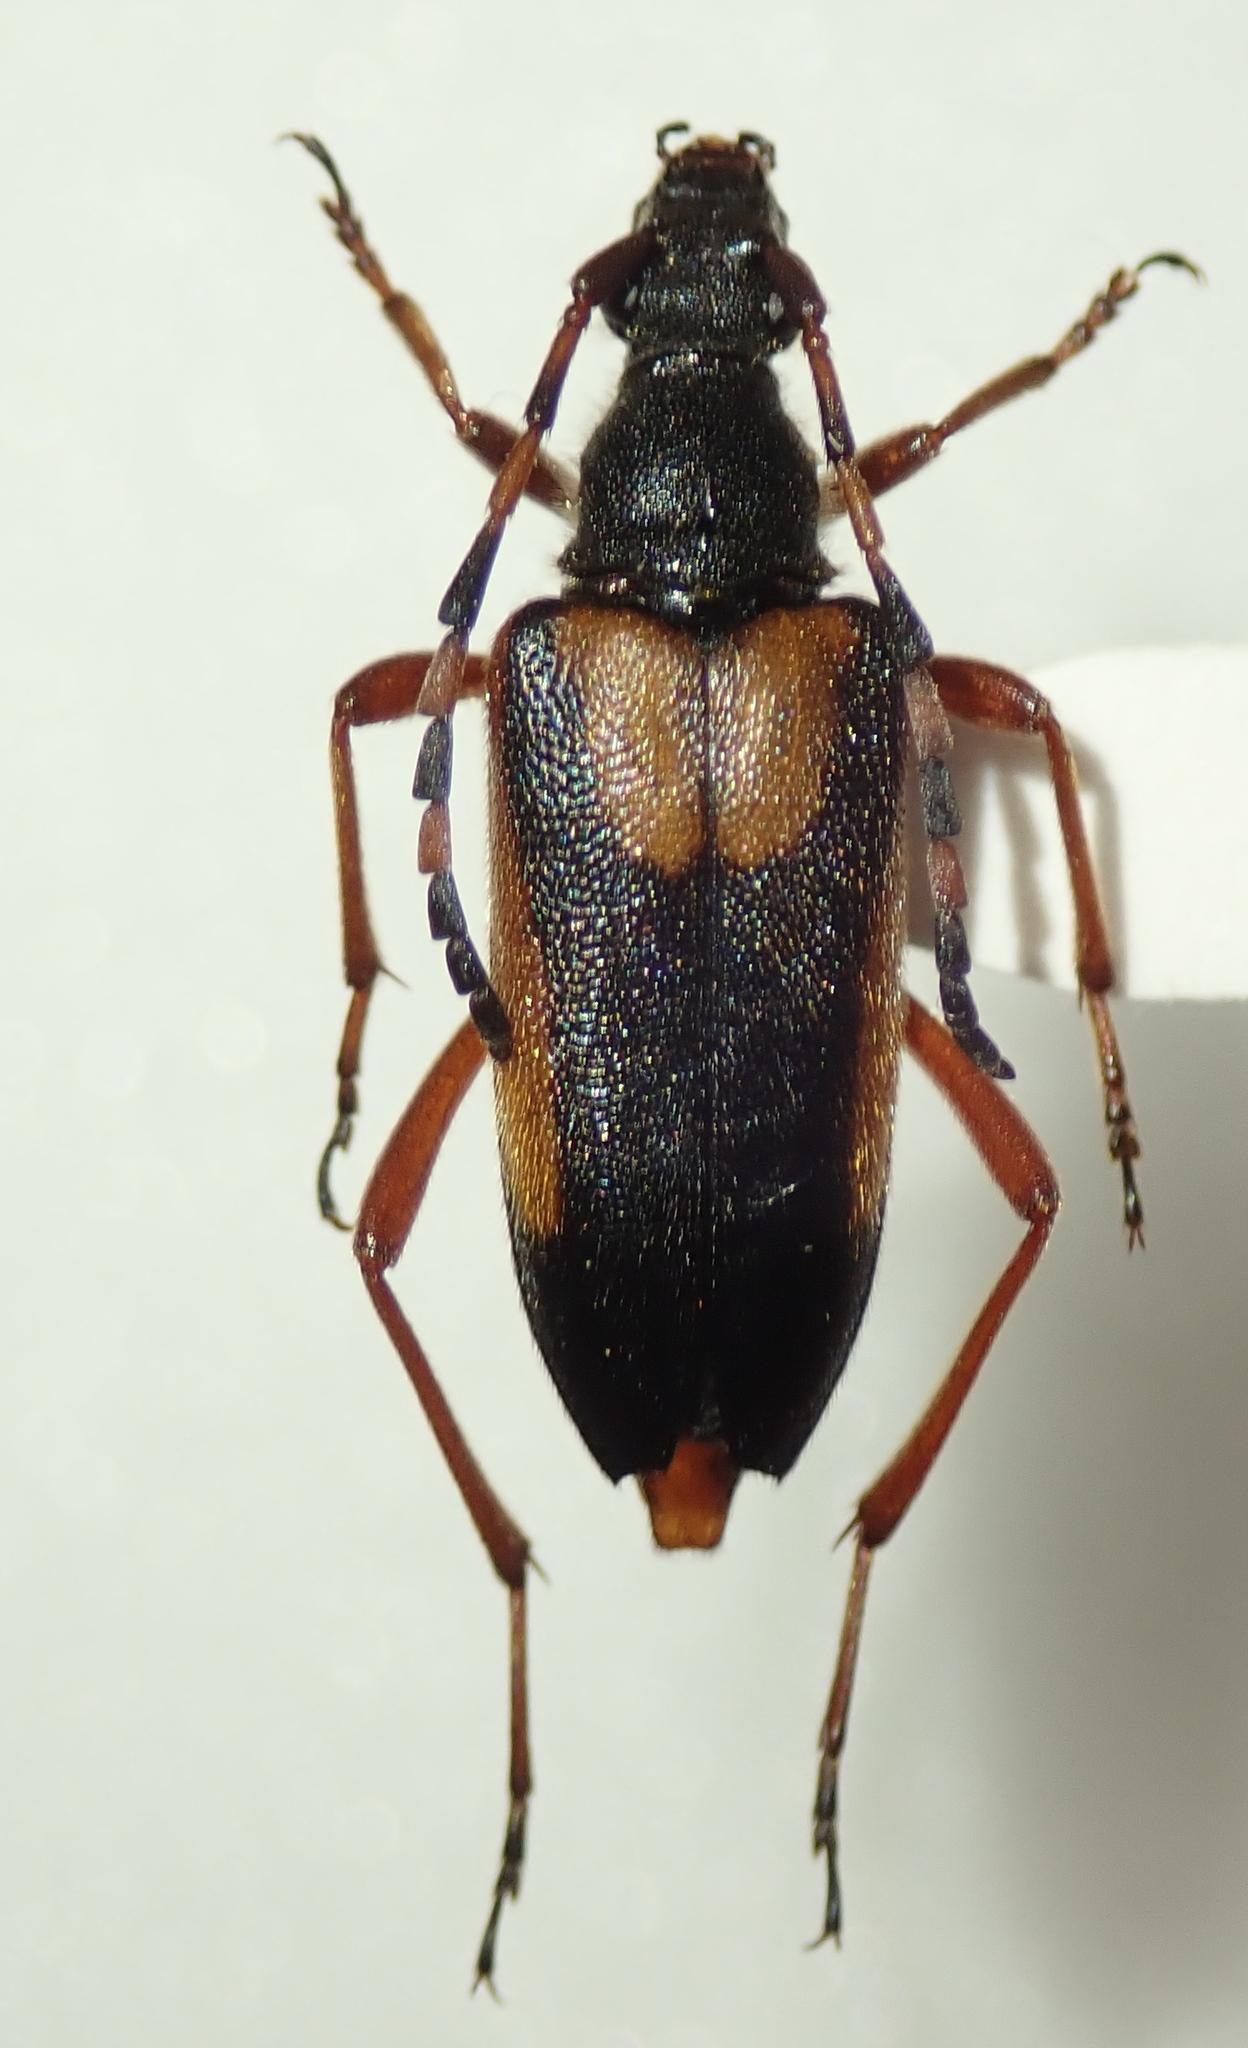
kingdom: Animalia
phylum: Arthropoda
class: Insecta
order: Coleoptera
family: Cerambycidae
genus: Stictoleptura
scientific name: Stictoleptura stragulata
